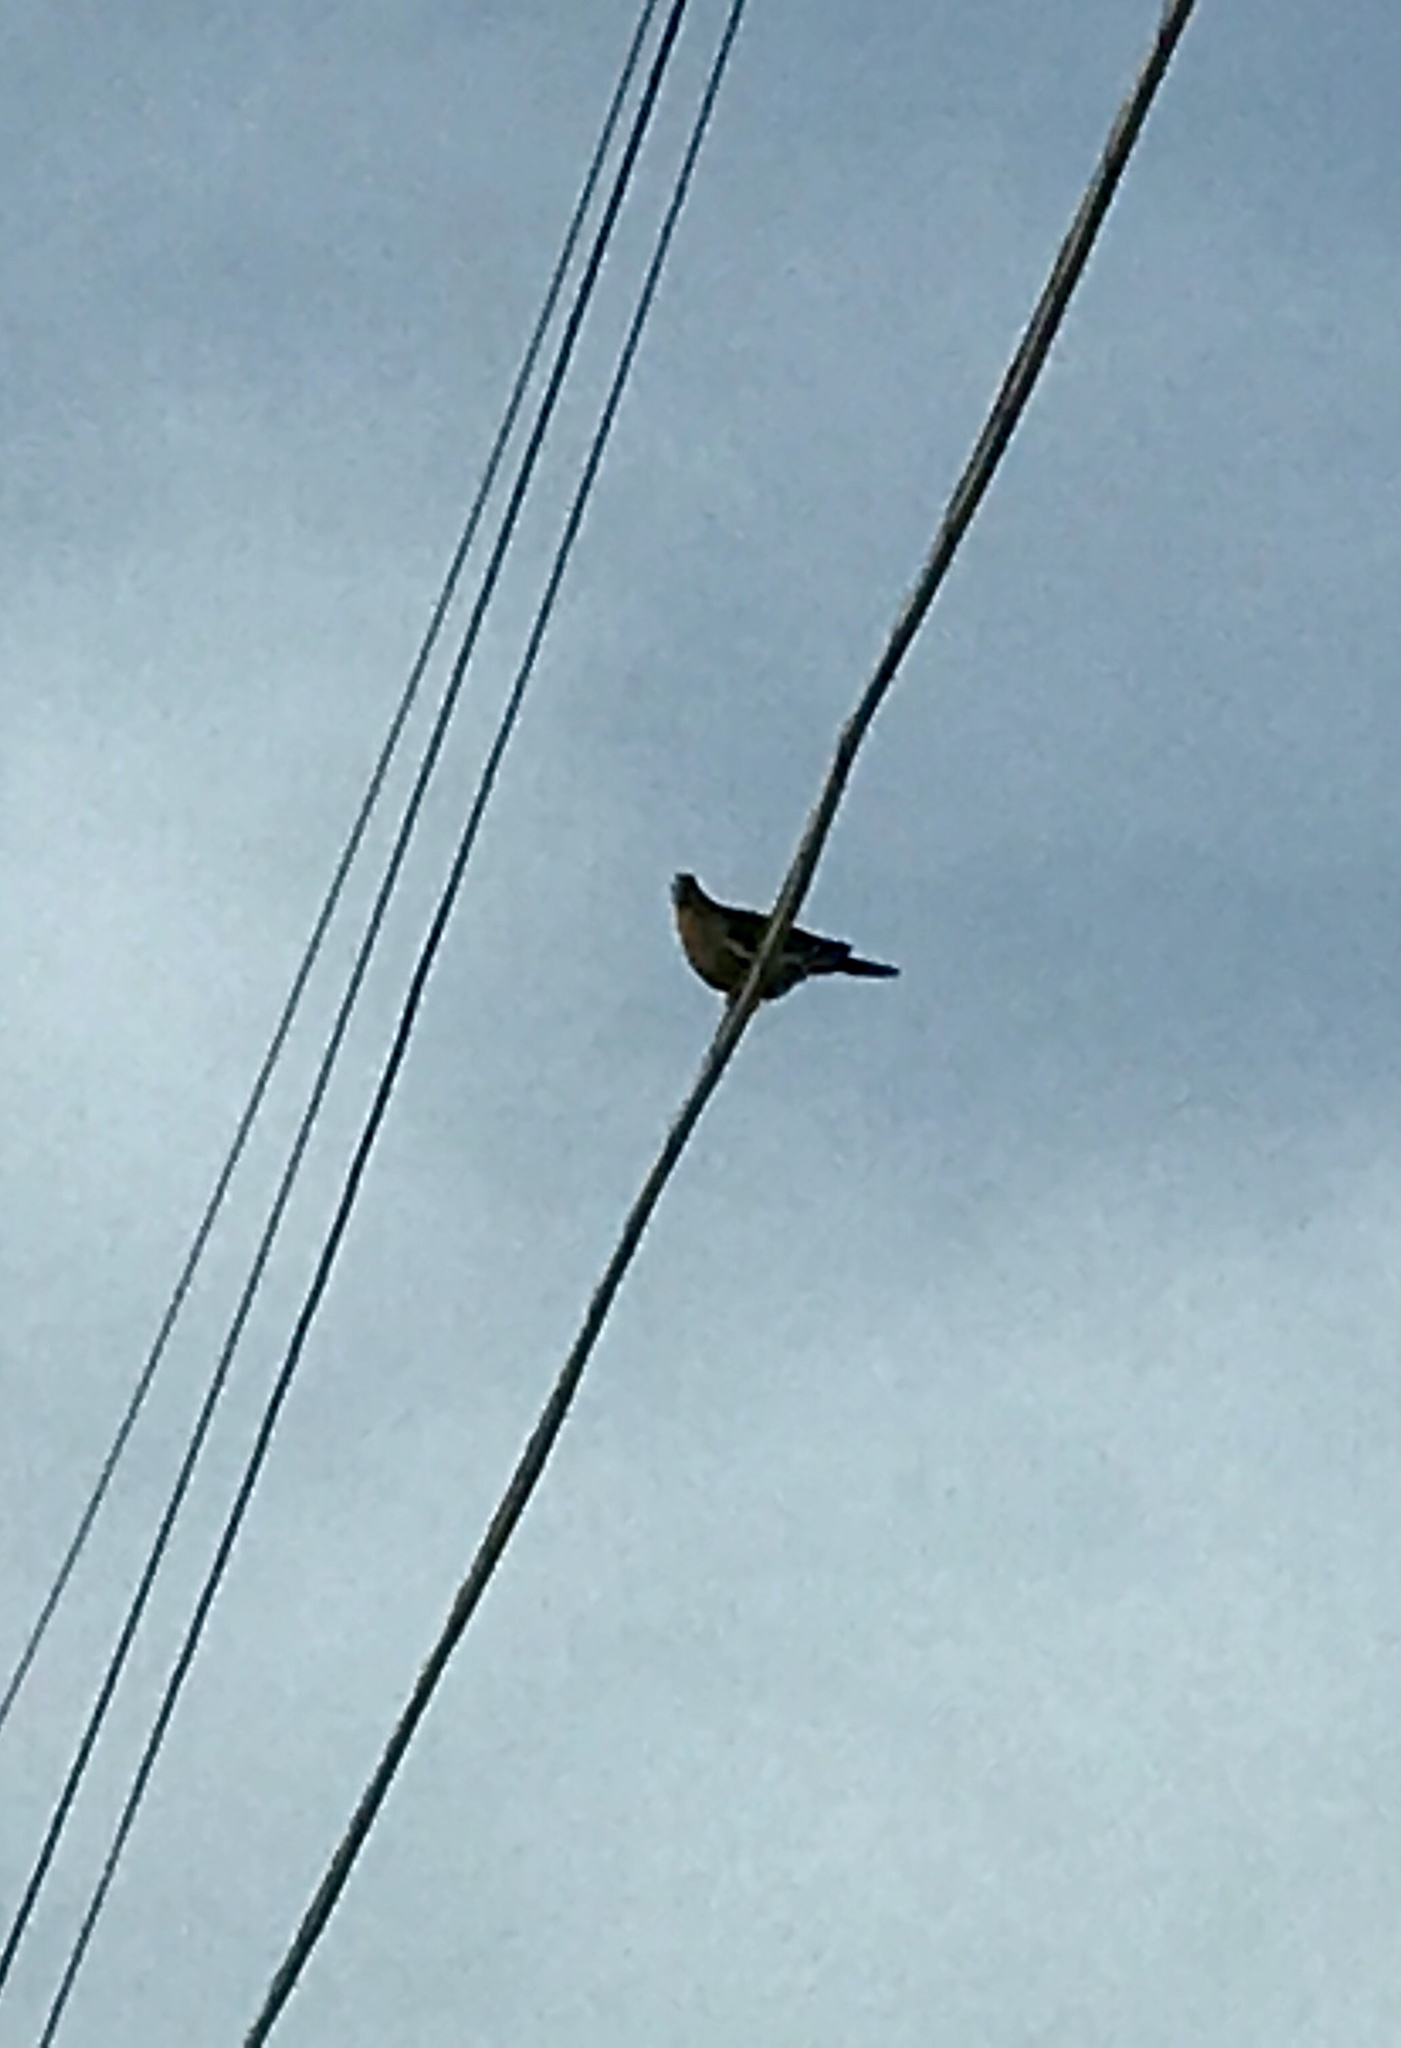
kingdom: Animalia
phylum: Chordata
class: Aves
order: Columbiformes
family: Columbidae
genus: Zenaida
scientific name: Zenaida asiatica
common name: White-winged dove
